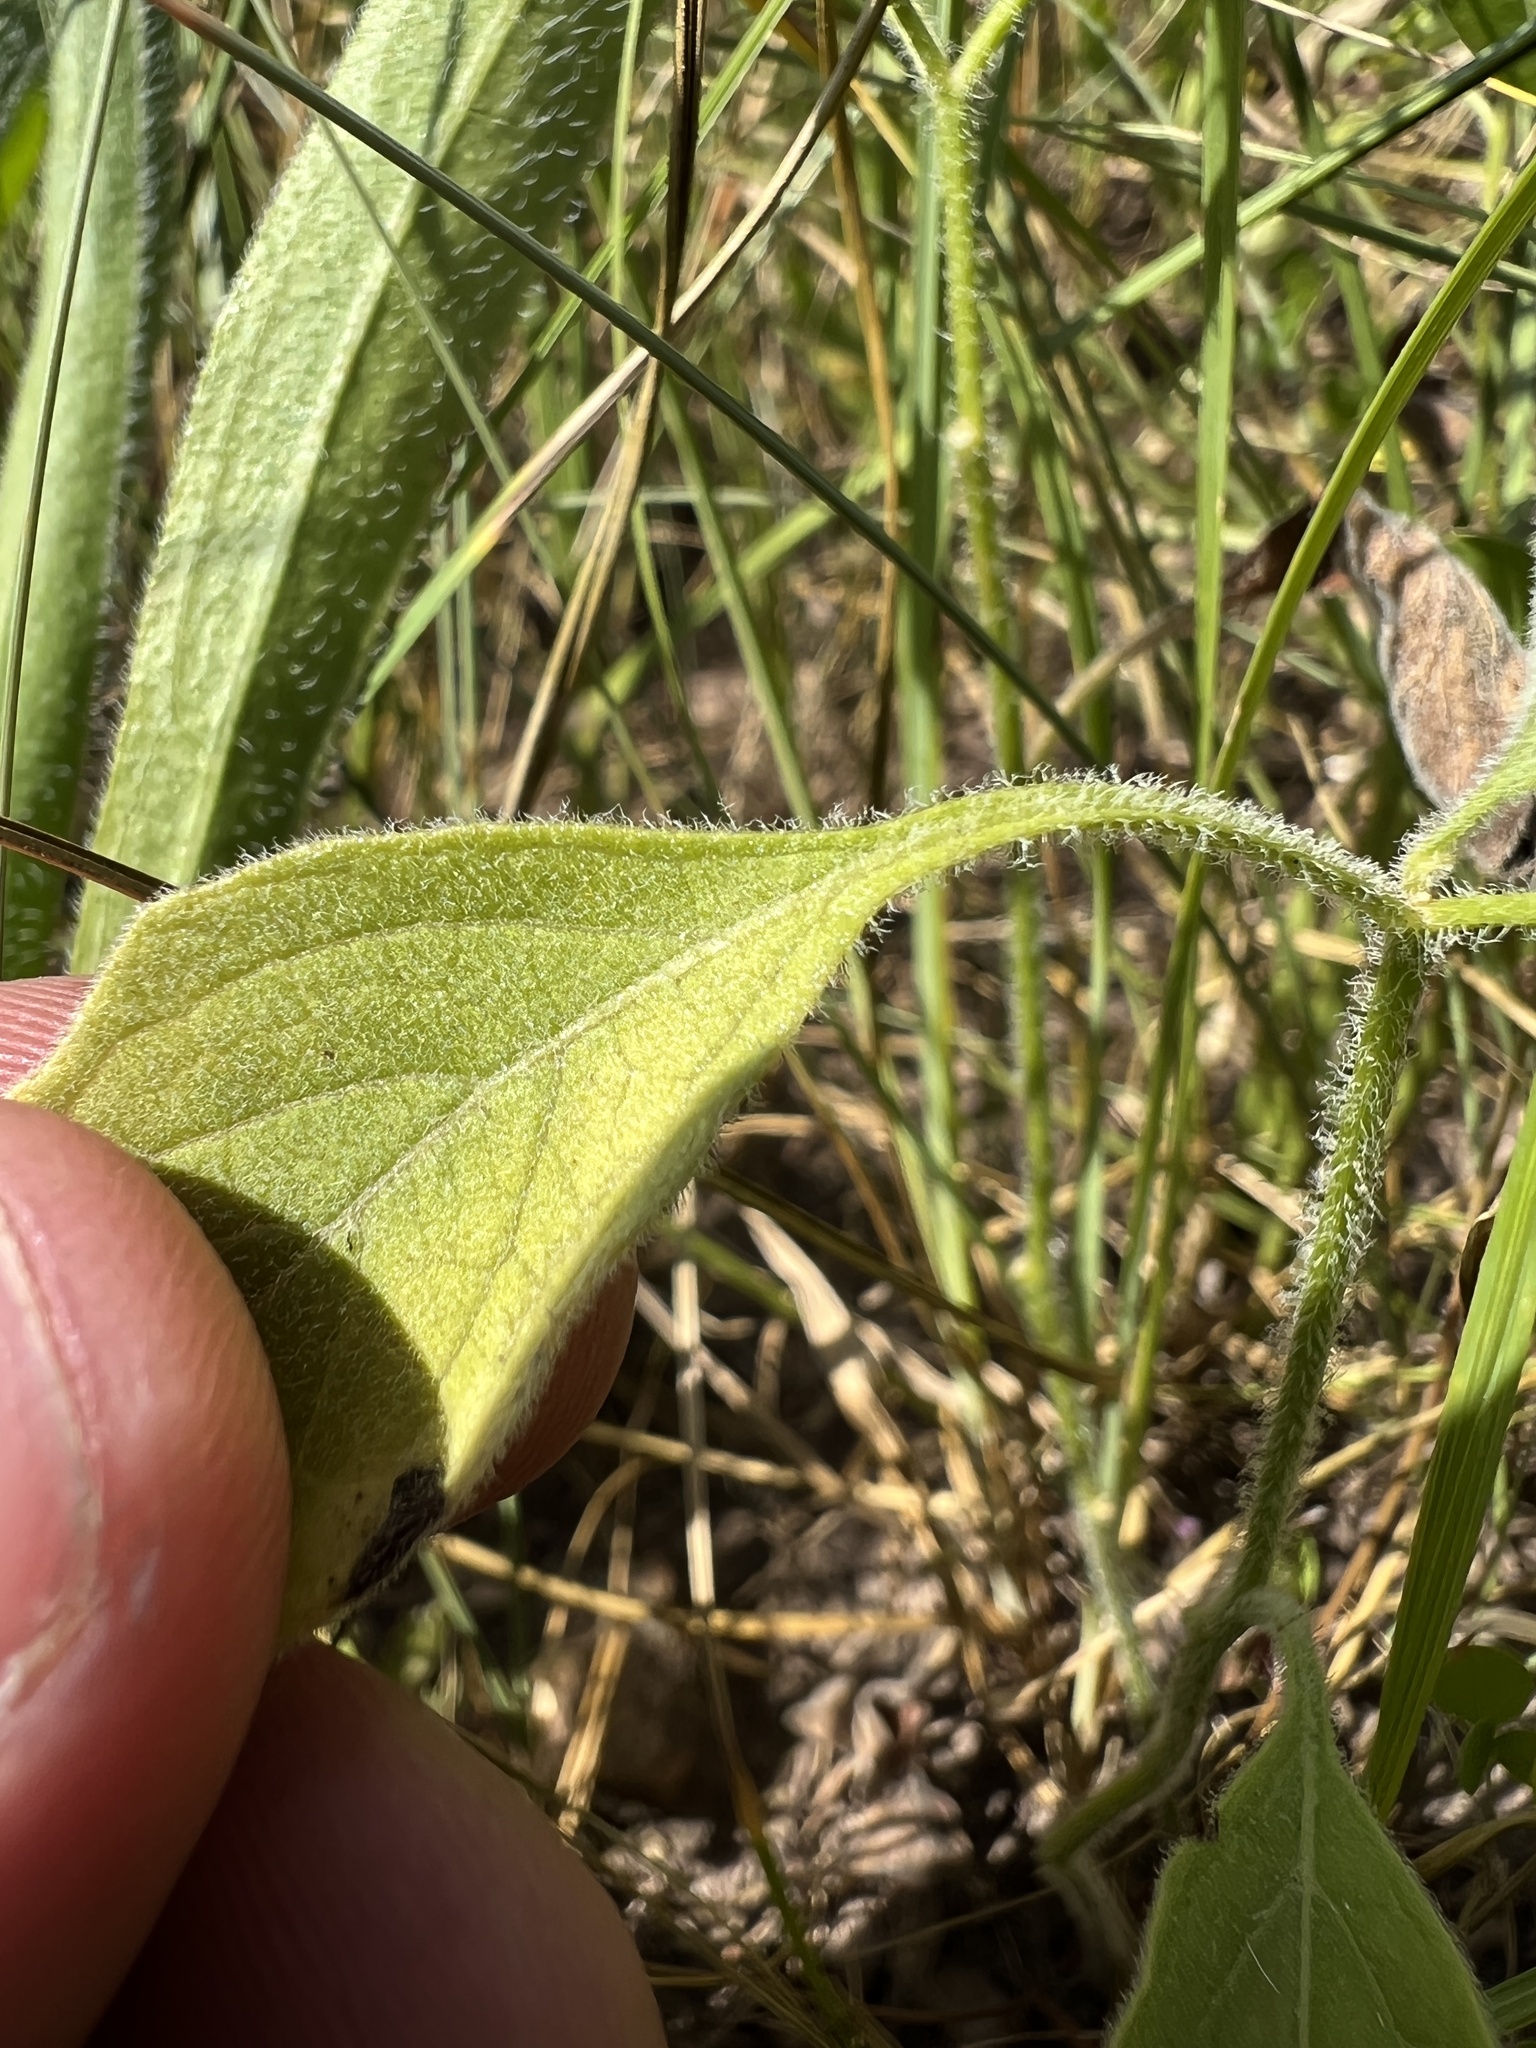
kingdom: Plantae
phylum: Tracheophyta
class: Magnoliopsida
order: Solanales
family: Solanaceae
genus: Physalis
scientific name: Physalis pumila
